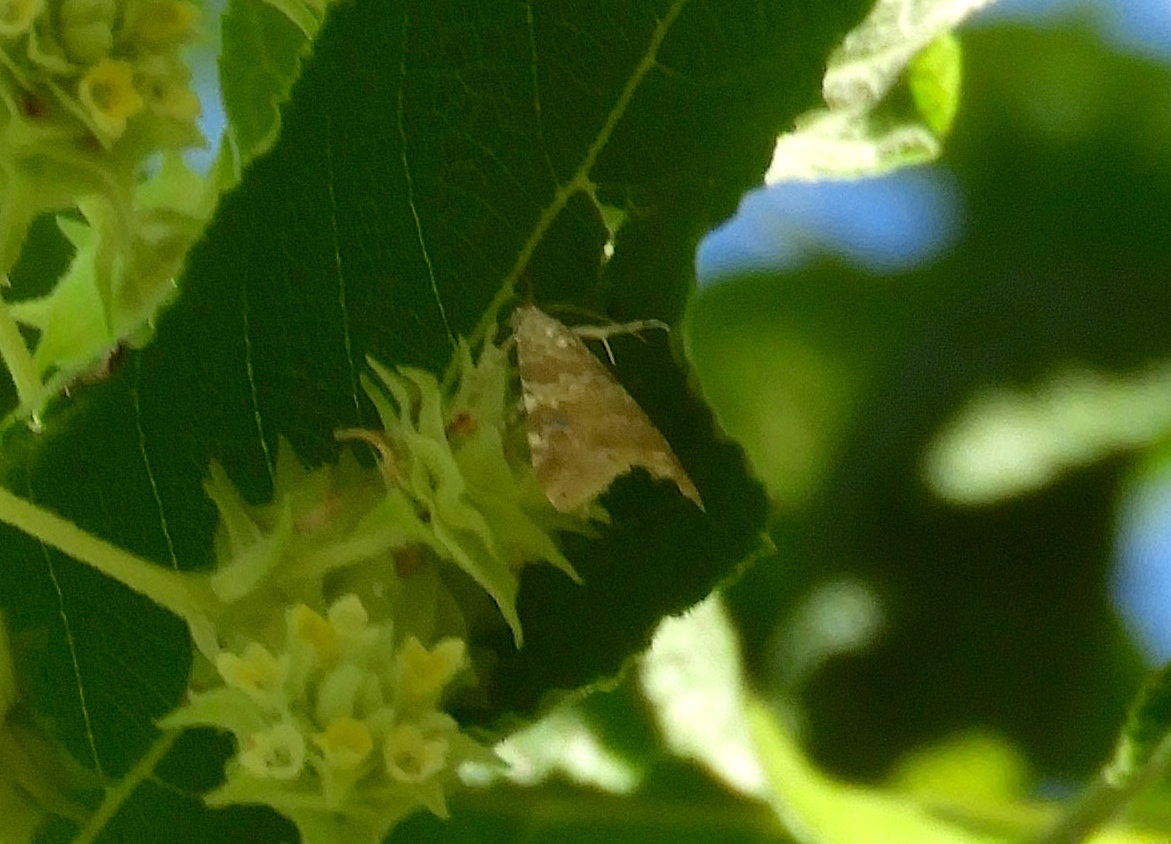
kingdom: Animalia
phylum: Arthropoda
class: Insecta
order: Lepidoptera
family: Crambidae
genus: Hellula
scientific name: Hellula rogatalis
